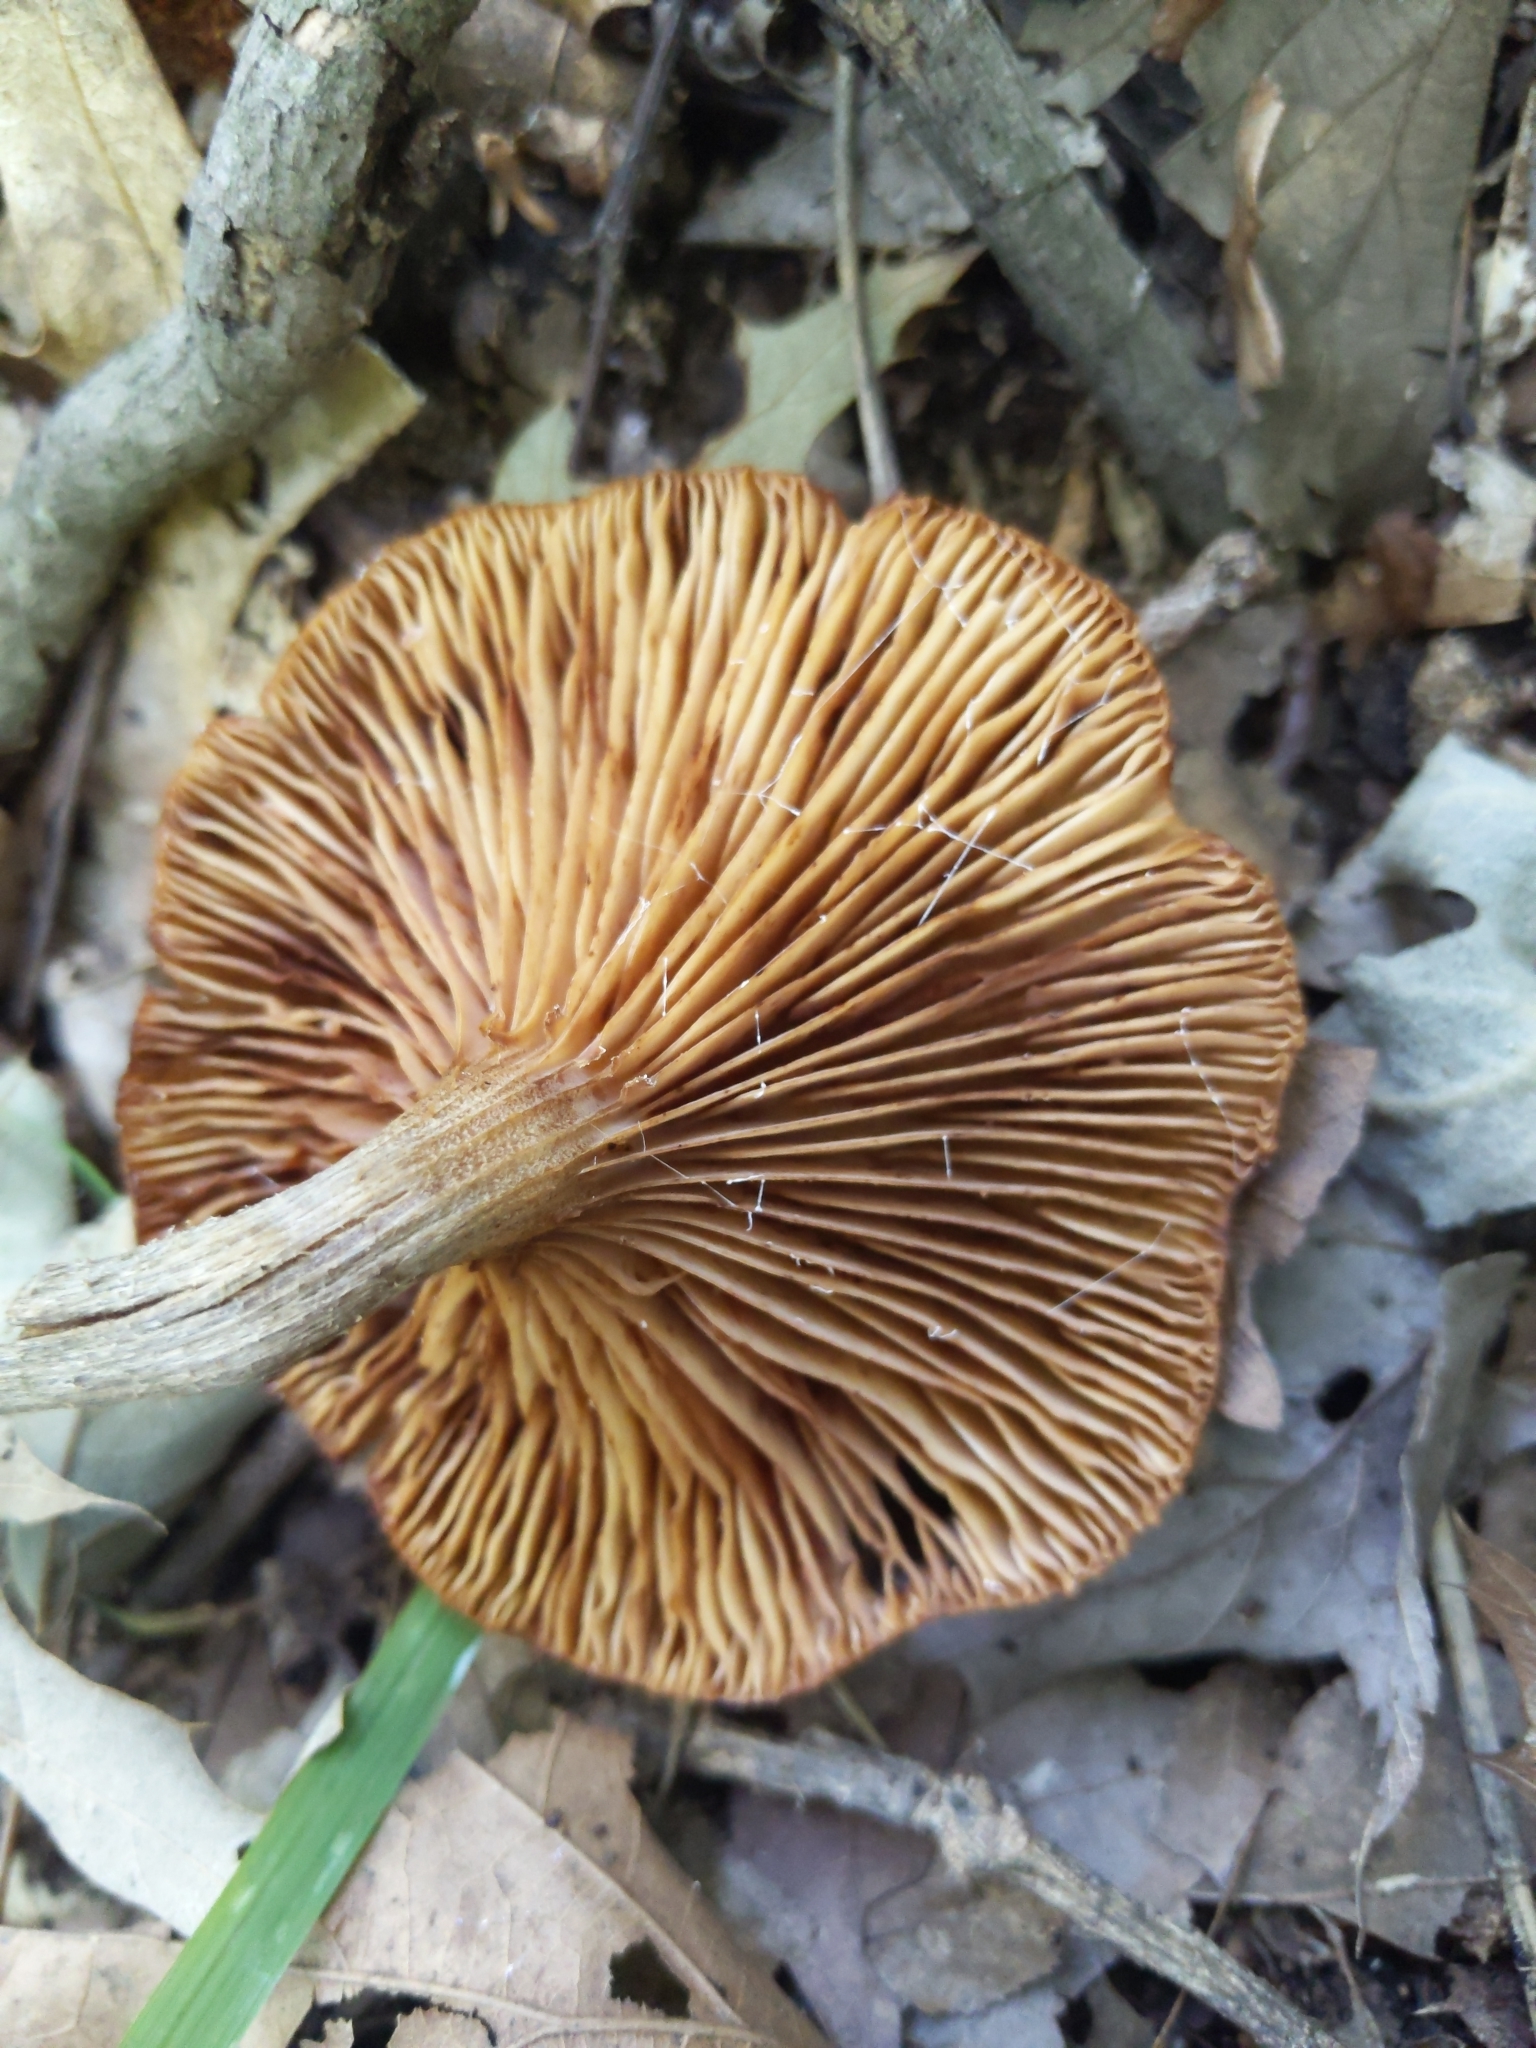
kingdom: Fungi
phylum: Basidiomycota
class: Agaricomycetes
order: Agaricales
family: Physalacriaceae
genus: Desarmillaria
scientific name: Desarmillaria caespitosa
